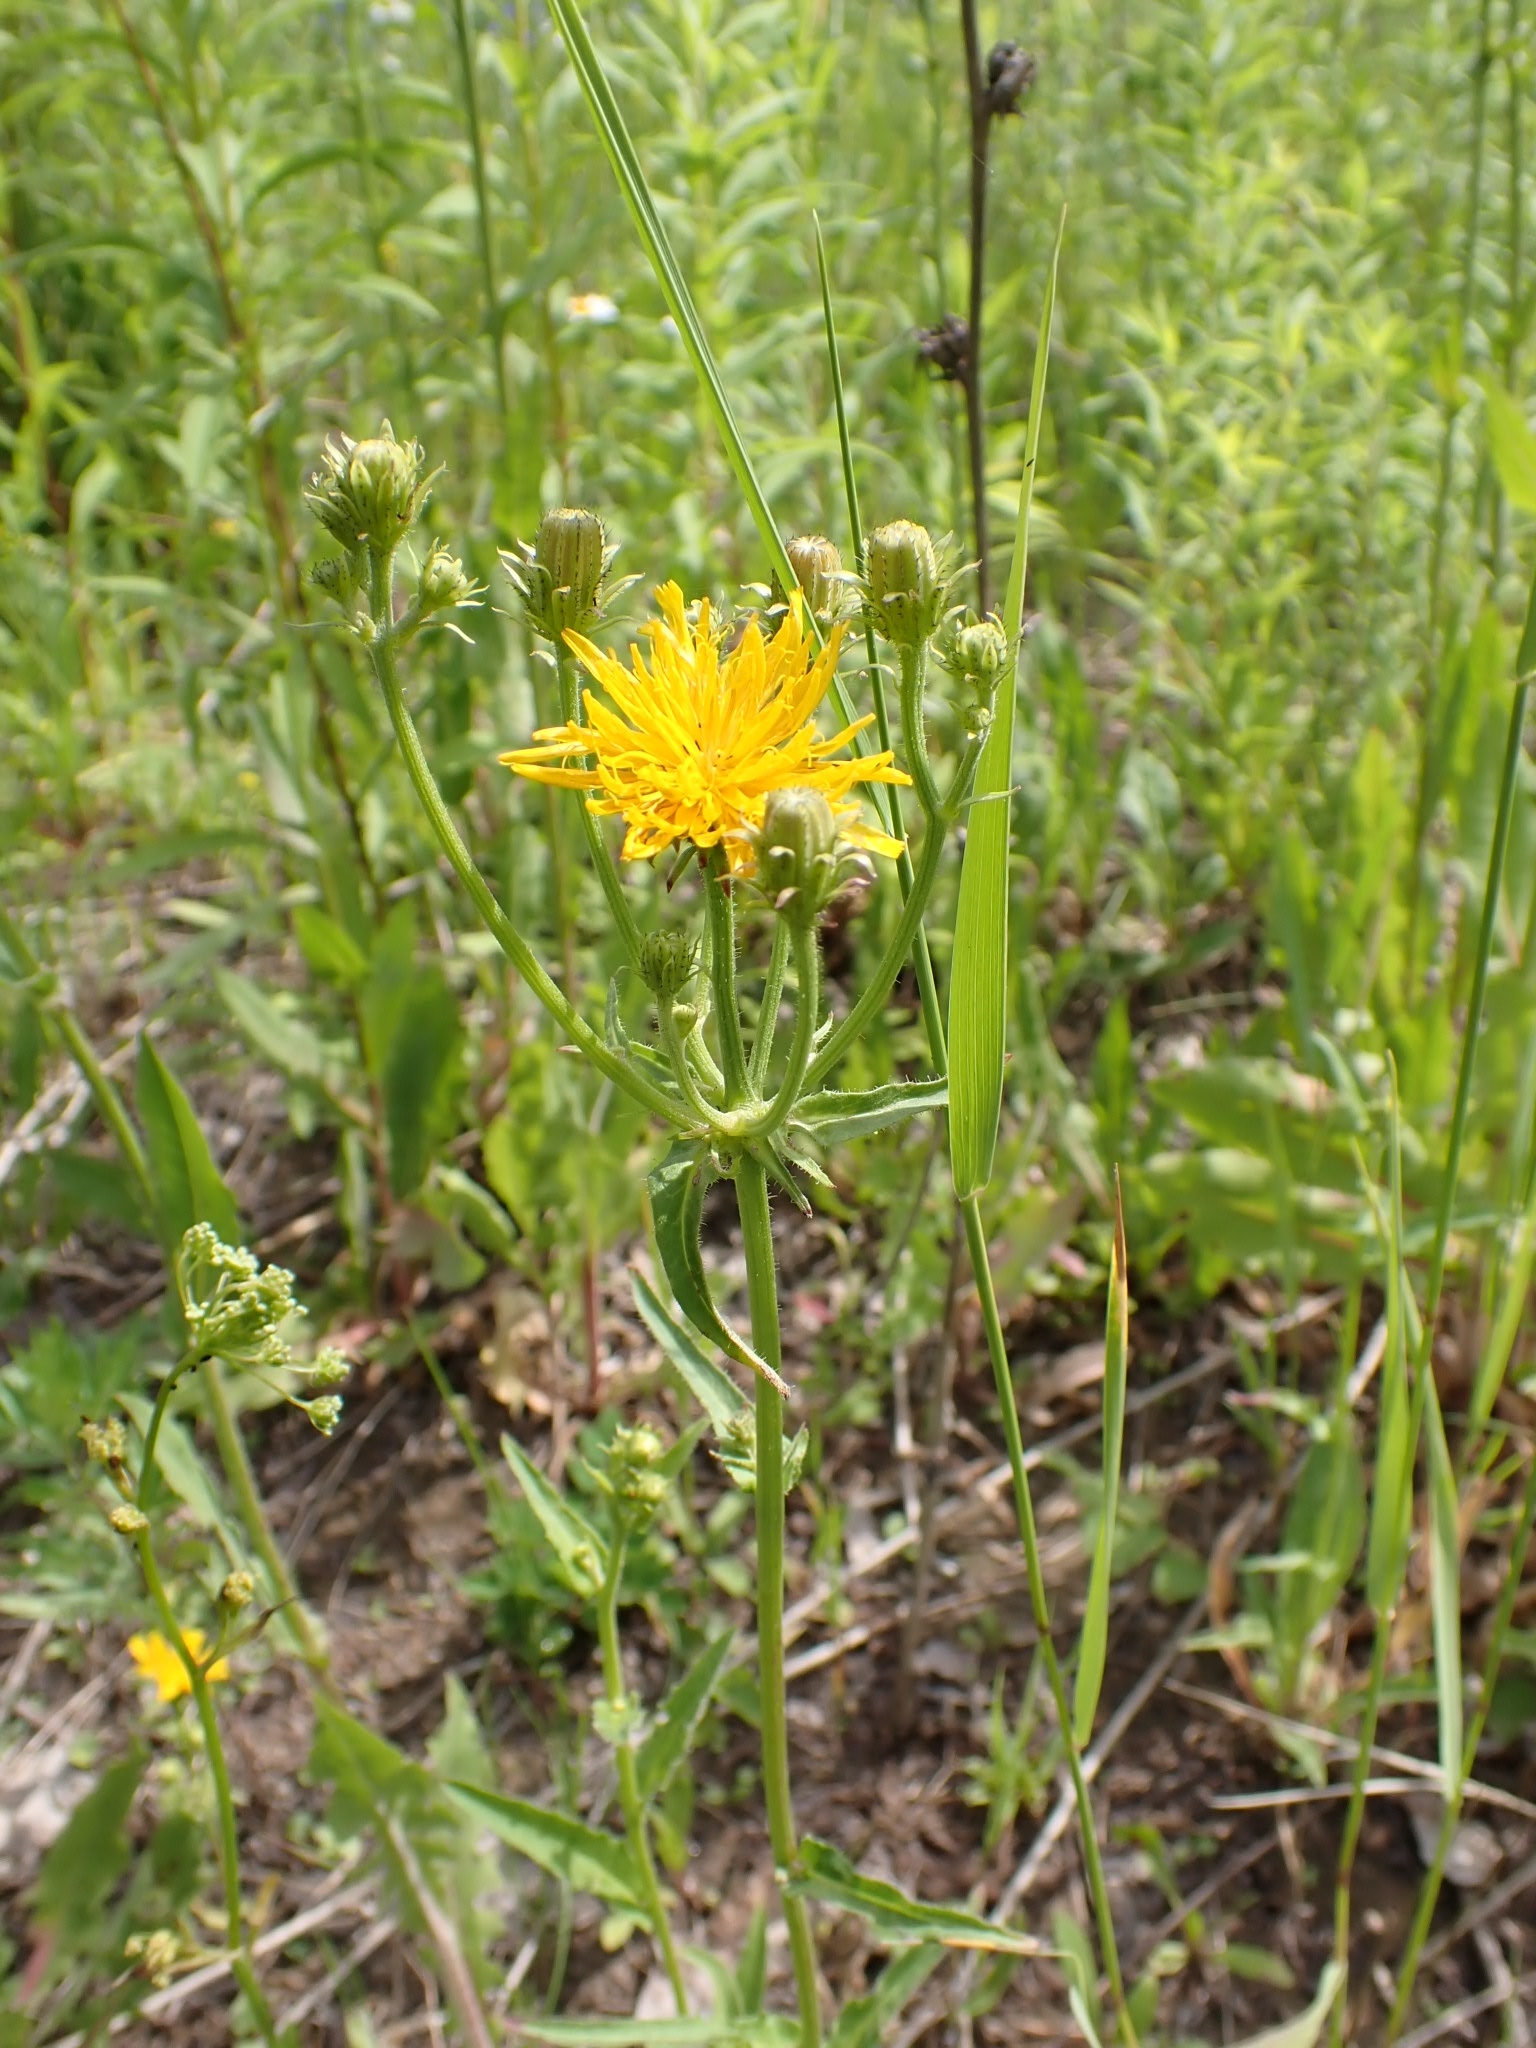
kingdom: Plantae
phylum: Tracheophyta
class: Magnoliopsida
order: Asterales
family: Asteraceae
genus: Picris
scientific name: Picris hieracioides
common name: Hawkweed oxtongue
